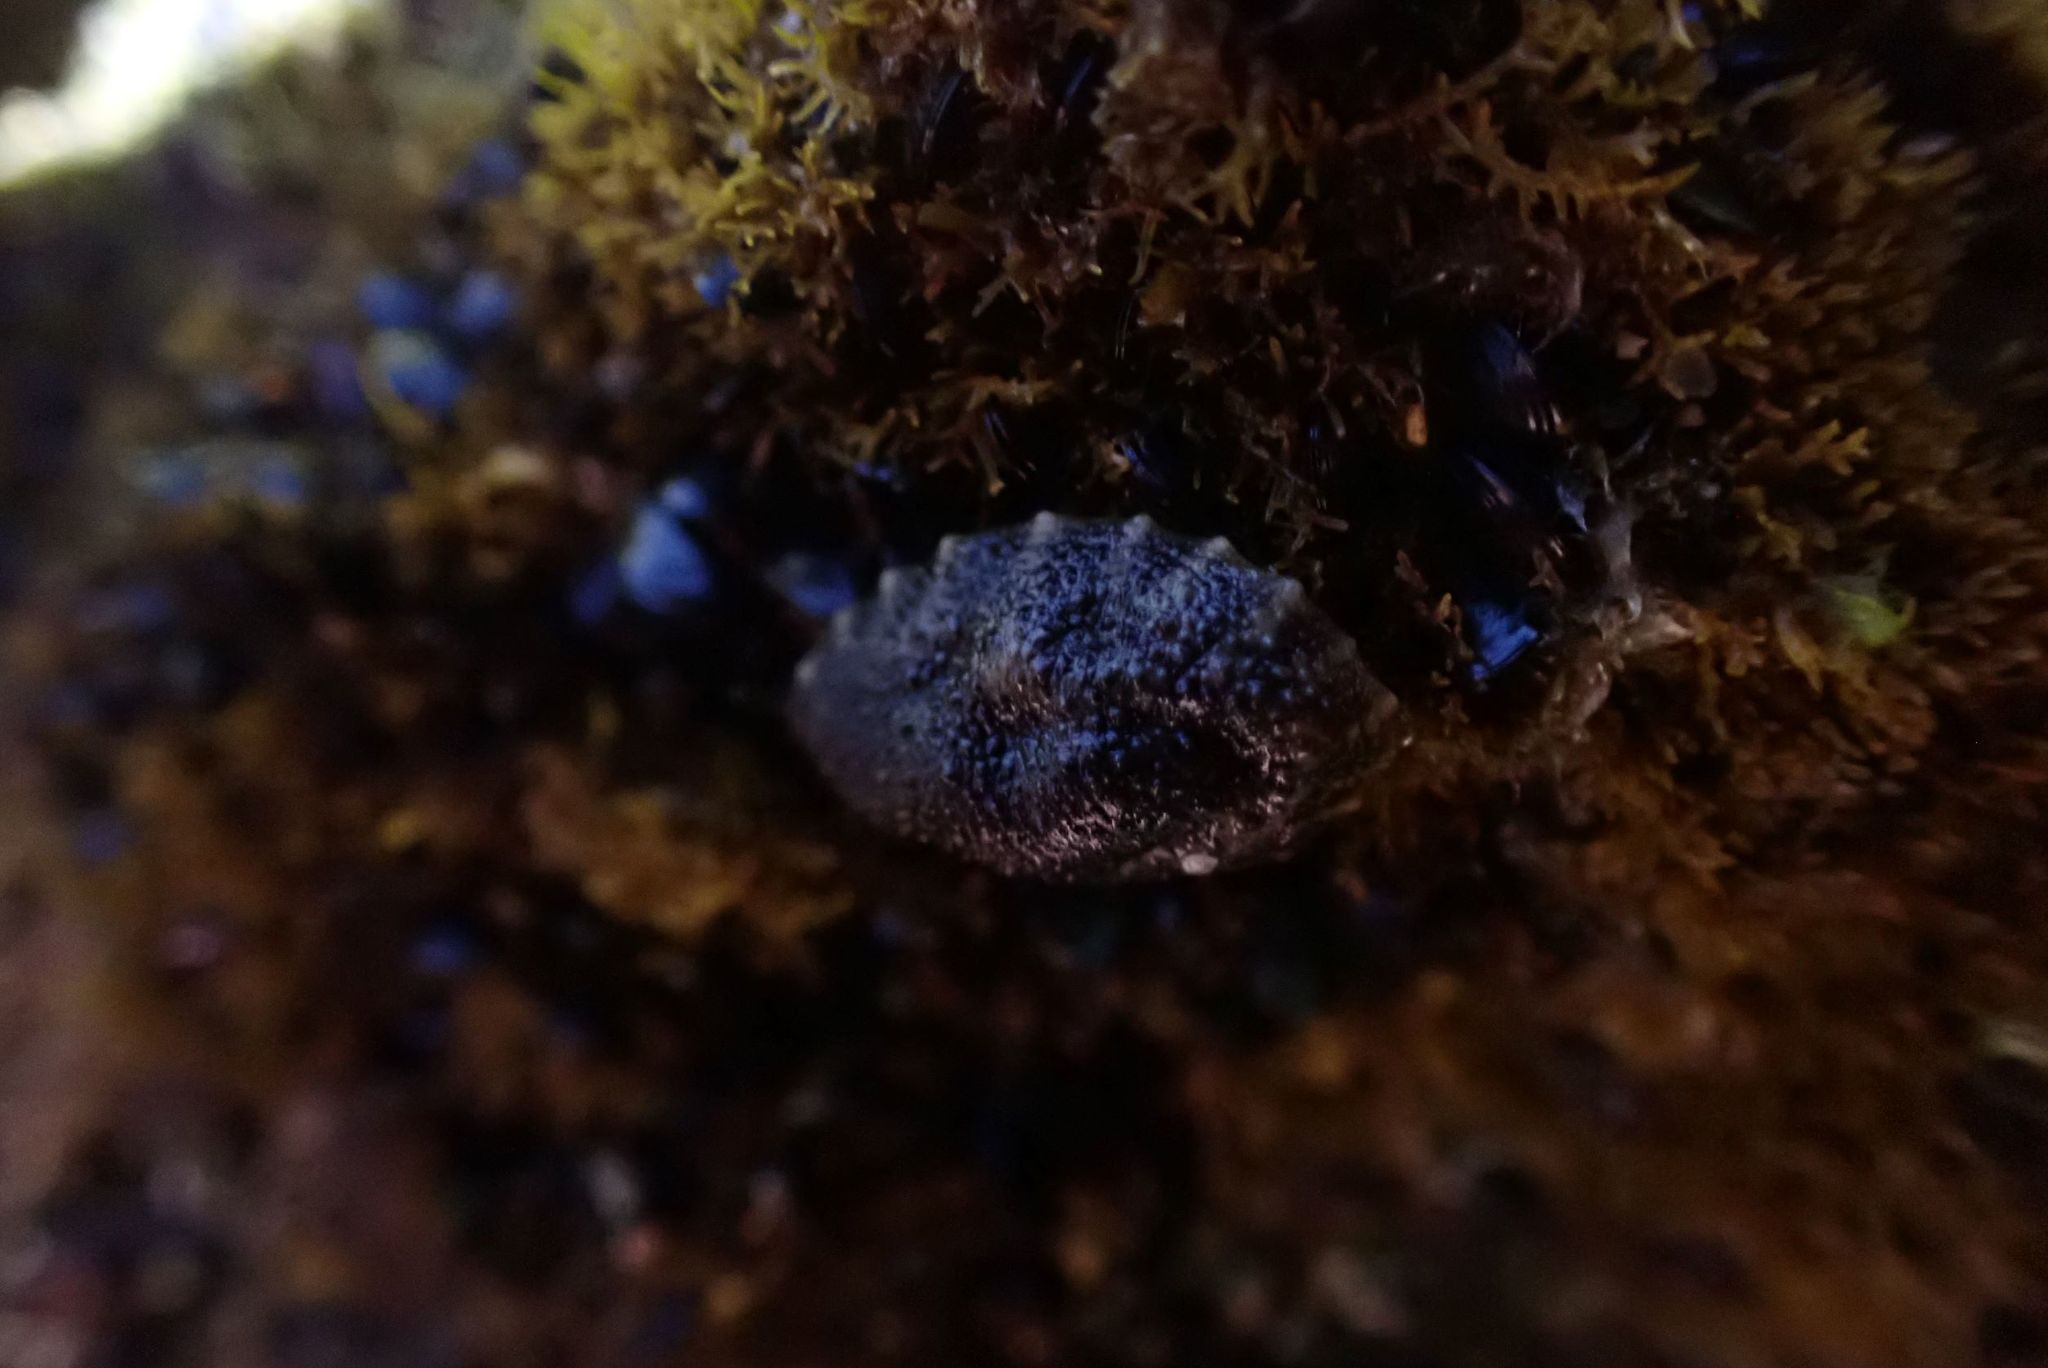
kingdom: Animalia
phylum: Mollusca
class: Gastropoda
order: Systellommatophora
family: Onchidiidae
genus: Onchidella
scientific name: Onchidella nigricans
